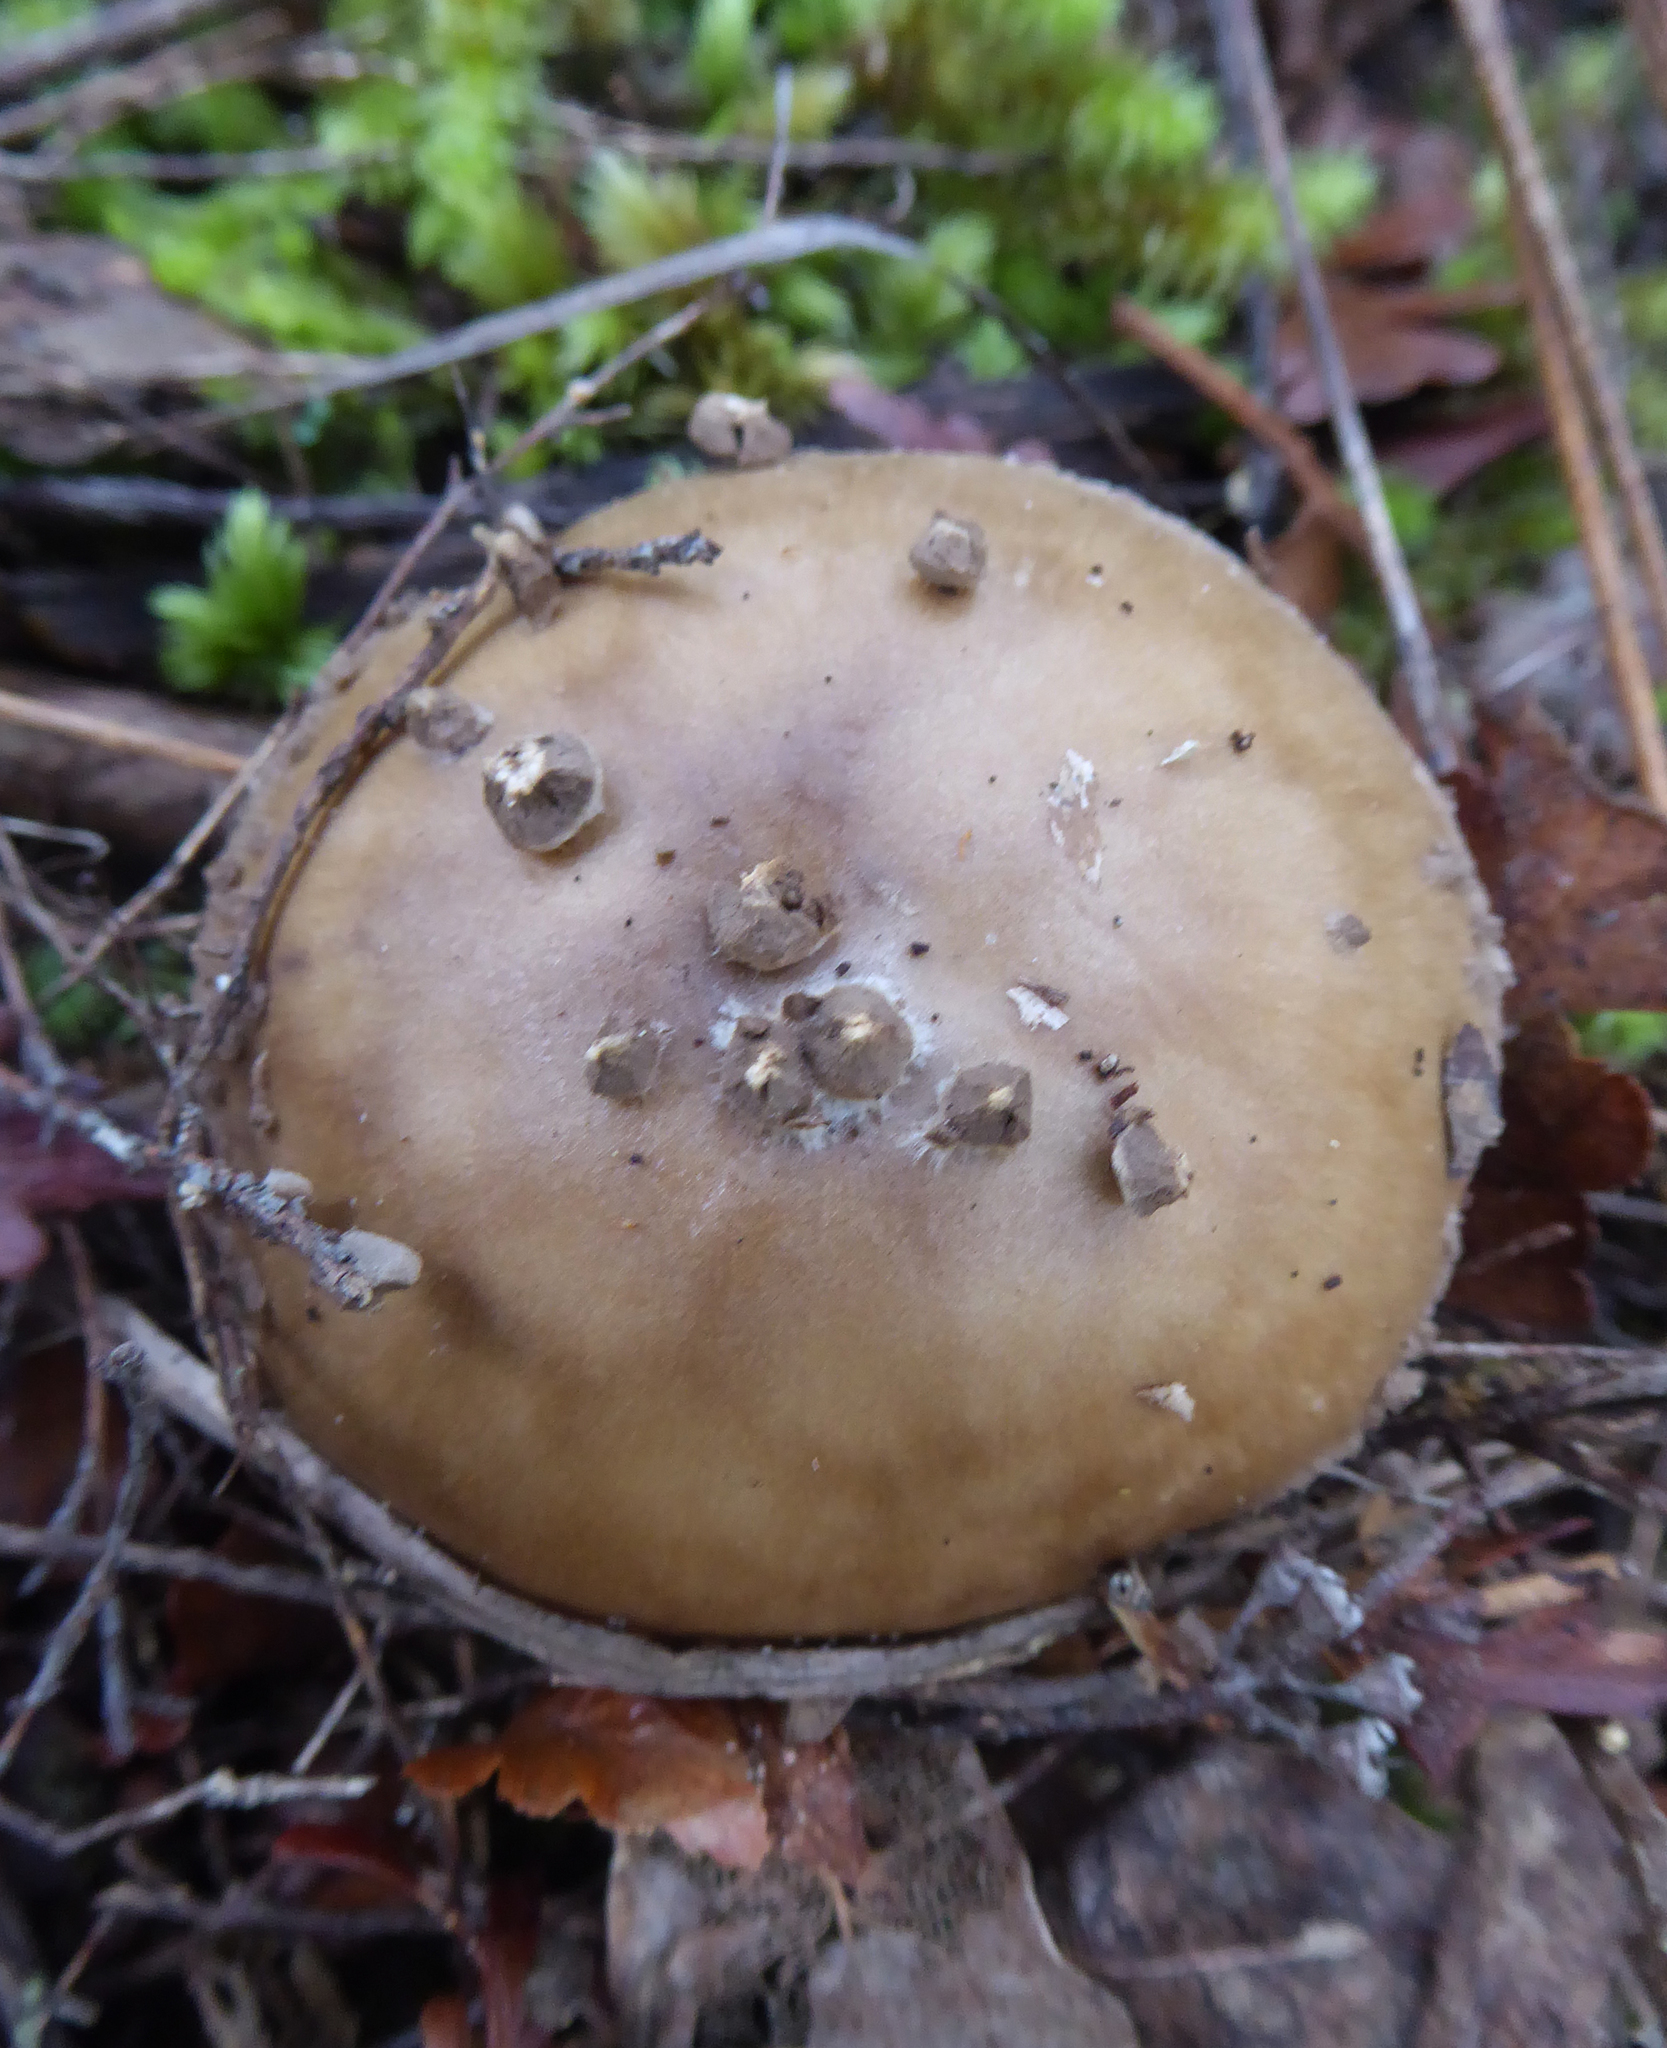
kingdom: Fungi
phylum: Basidiomycota
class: Agaricomycetes
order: Agaricales
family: Amanitaceae
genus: Amanita
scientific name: Amanita australis
